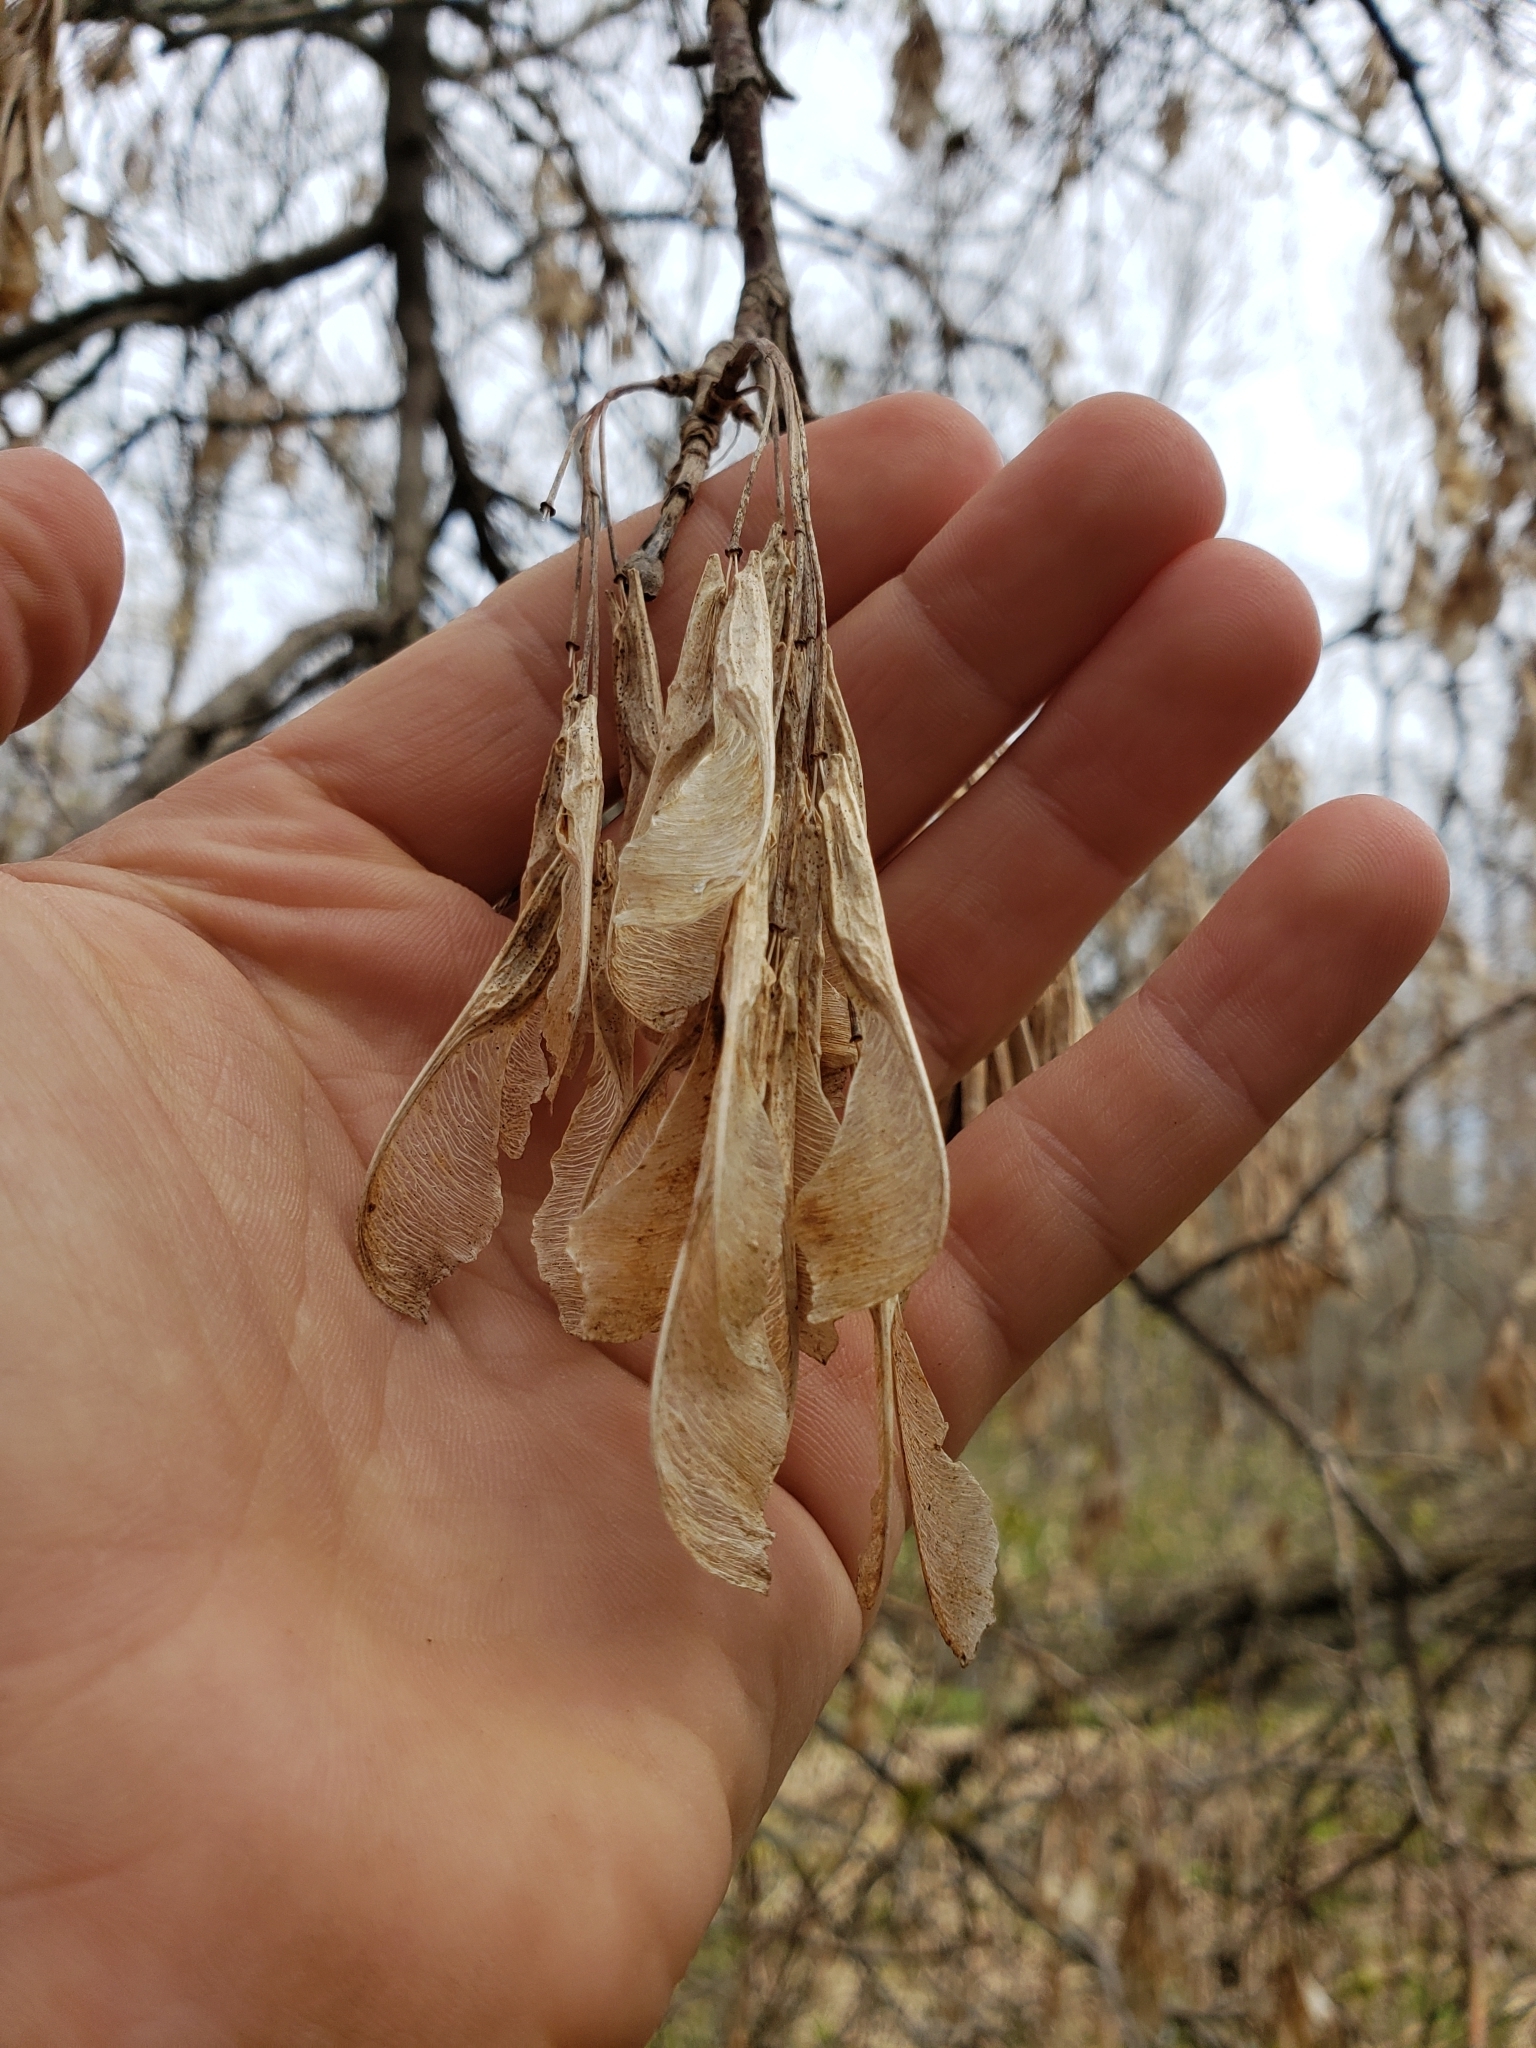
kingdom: Plantae
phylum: Tracheophyta
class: Magnoliopsida
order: Sapindales
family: Sapindaceae
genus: Acer
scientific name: Acer negundo
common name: Ashleaf maple
